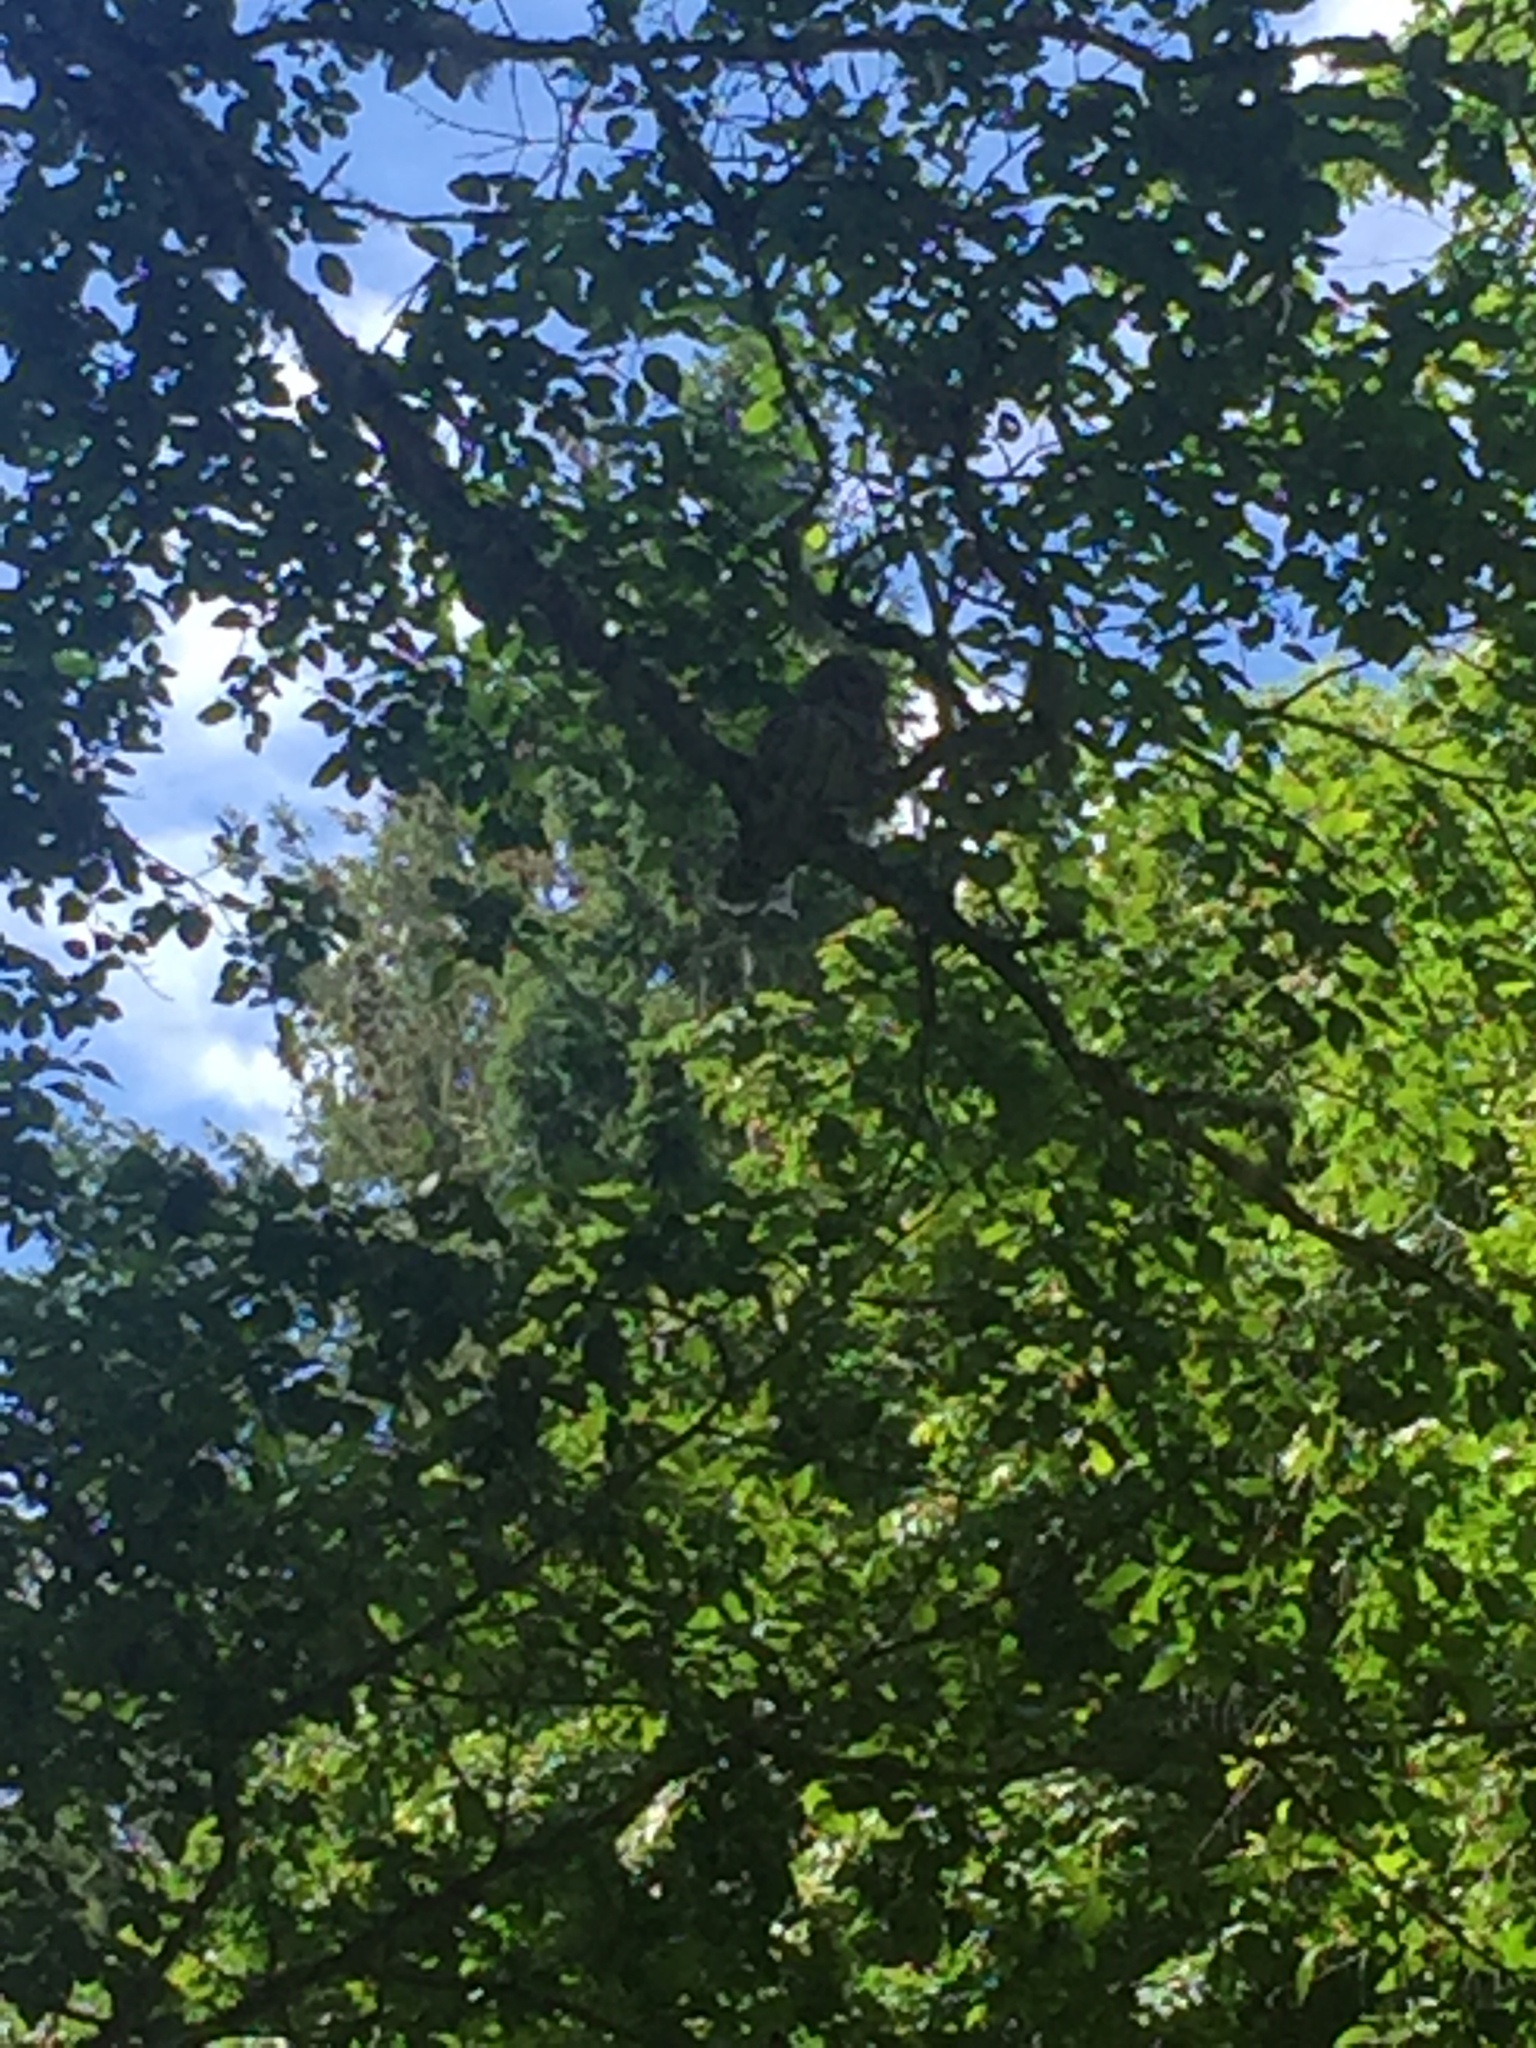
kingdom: Animalia
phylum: Chordata
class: Aves
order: Strigiformes
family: Strigidae
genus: Strix
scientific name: Strix varia
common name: Barred owl
